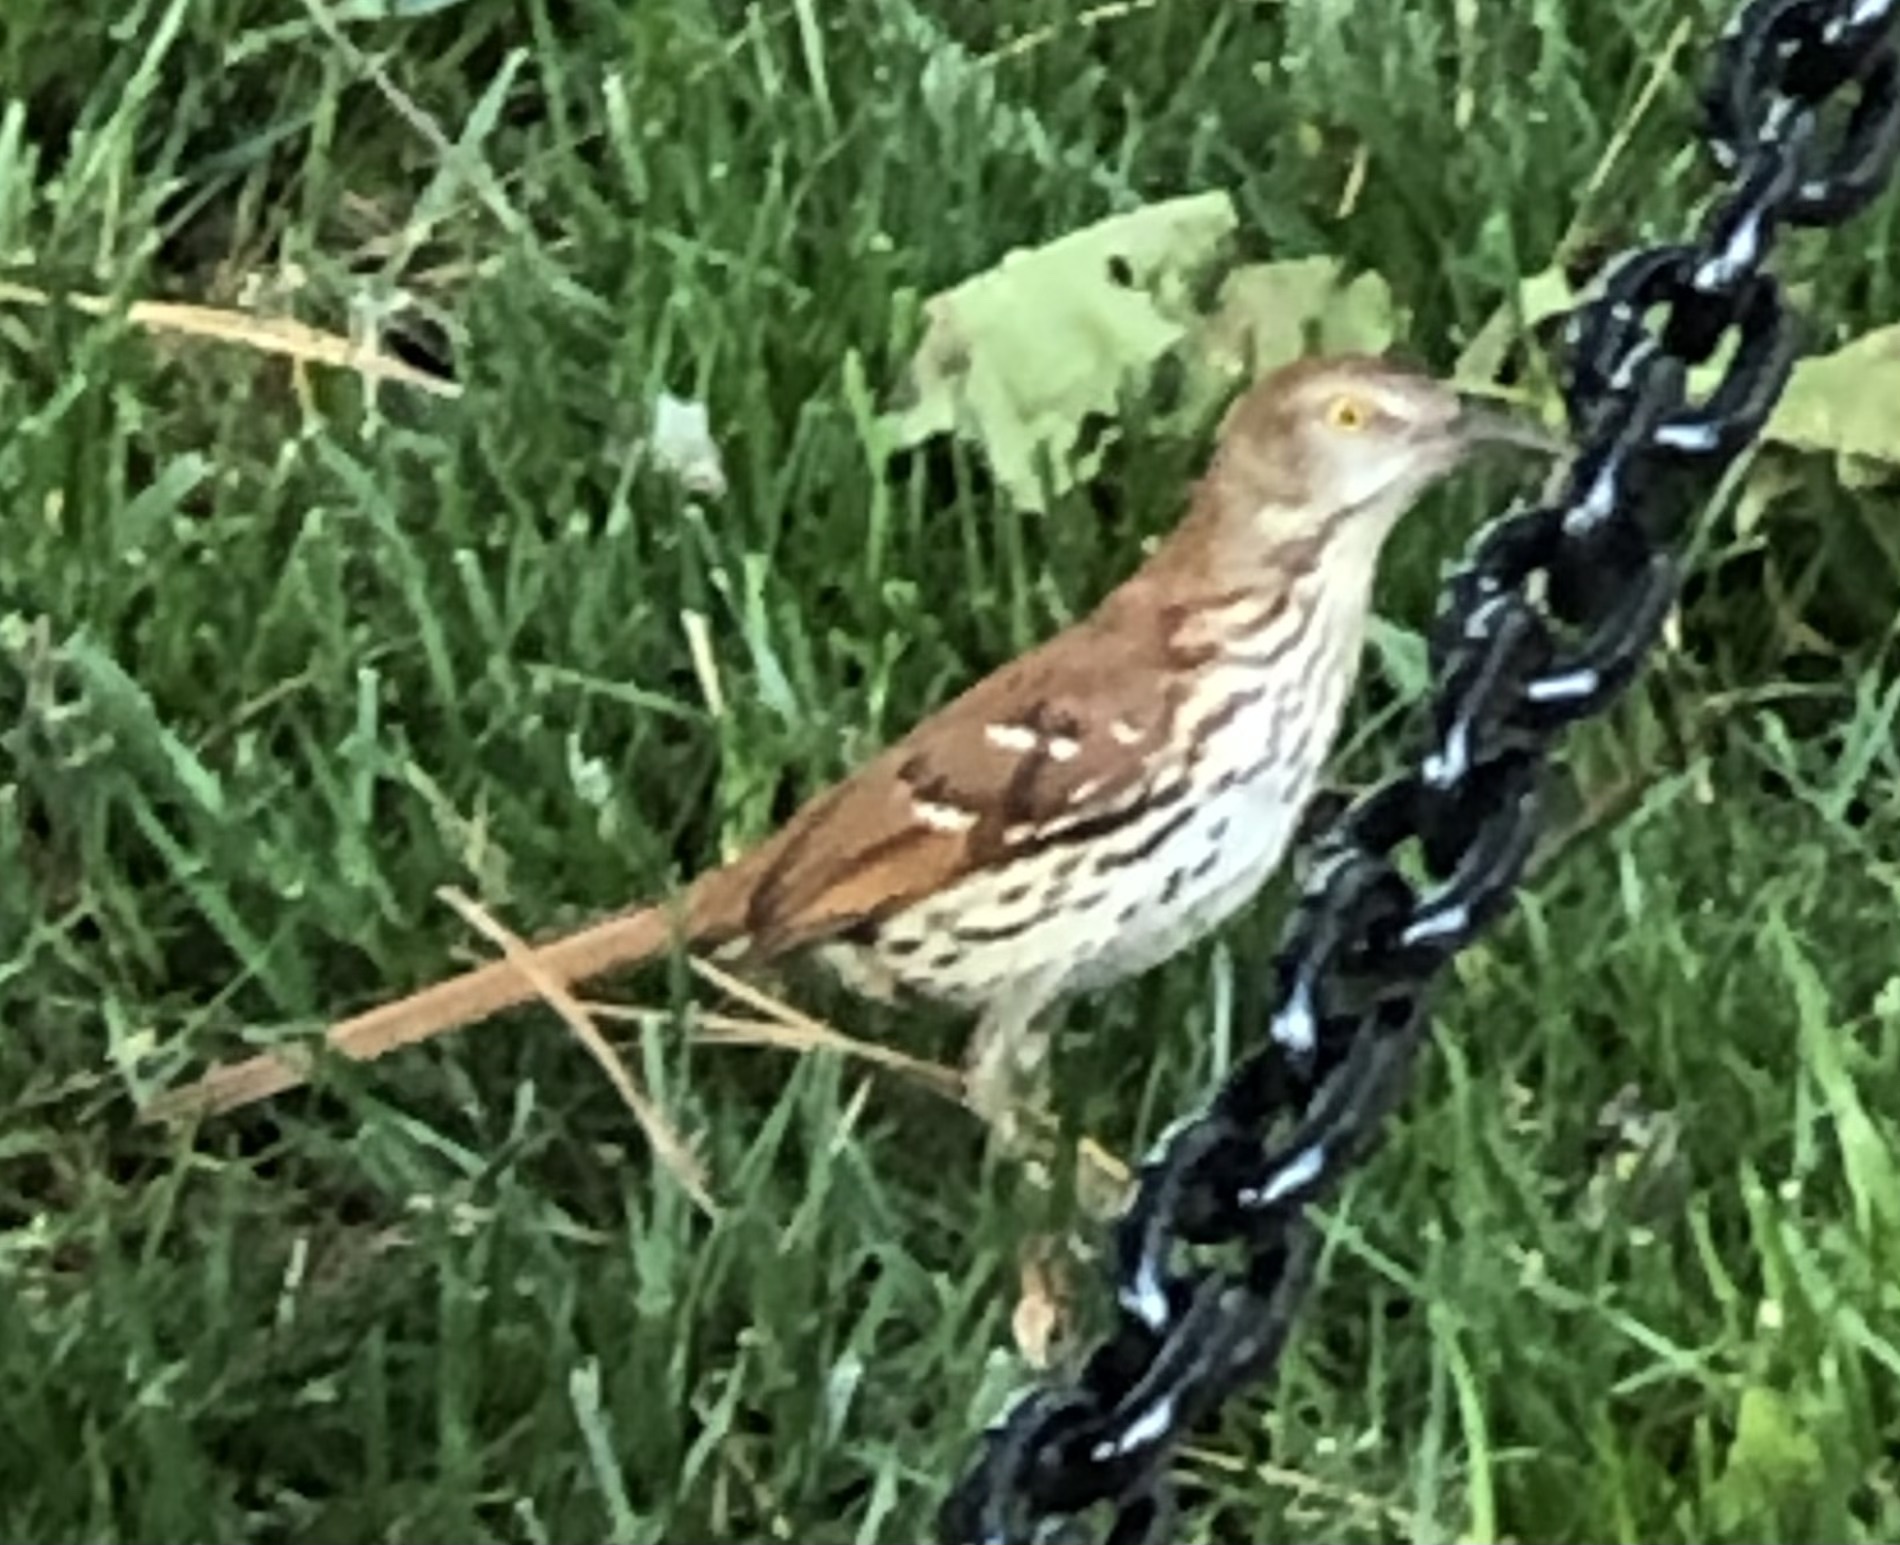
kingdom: Animalia
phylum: Chordata
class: Aves
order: Passeriformes
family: Mimidae
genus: Toxostoma
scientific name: Toxostoma rufum
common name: Brown thrasher
